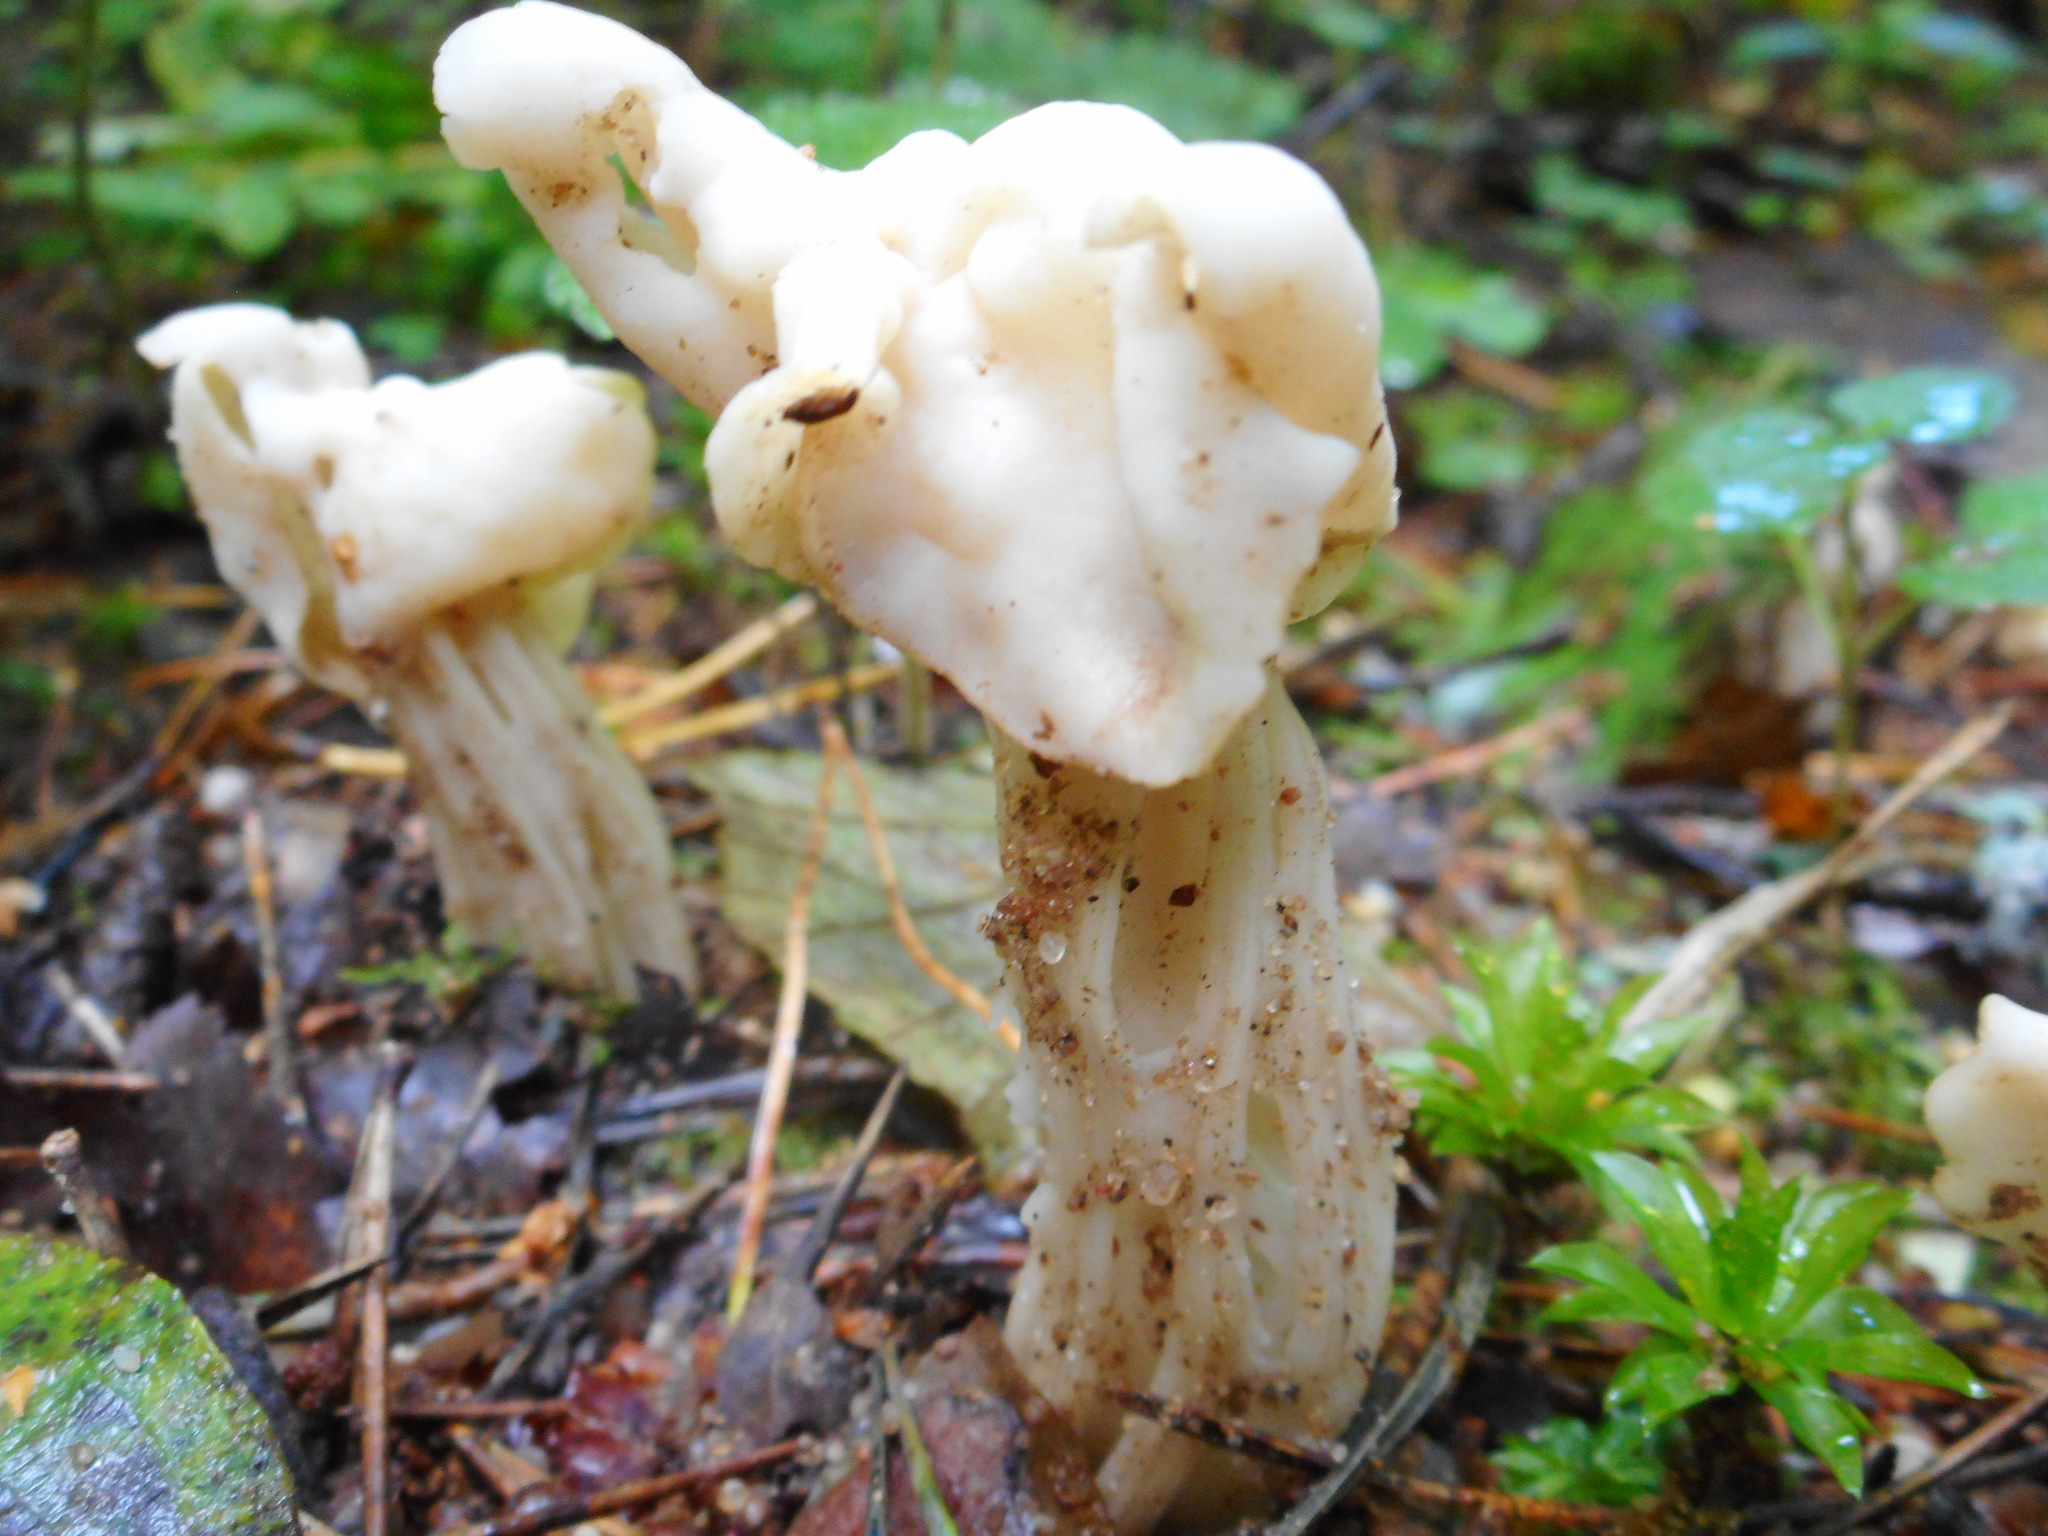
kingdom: Fungi
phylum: Ascomycota
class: Pezizomycetes
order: Pezizales
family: Helvellaceae
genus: Helvella
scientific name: Helvella crispa
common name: White saddle
